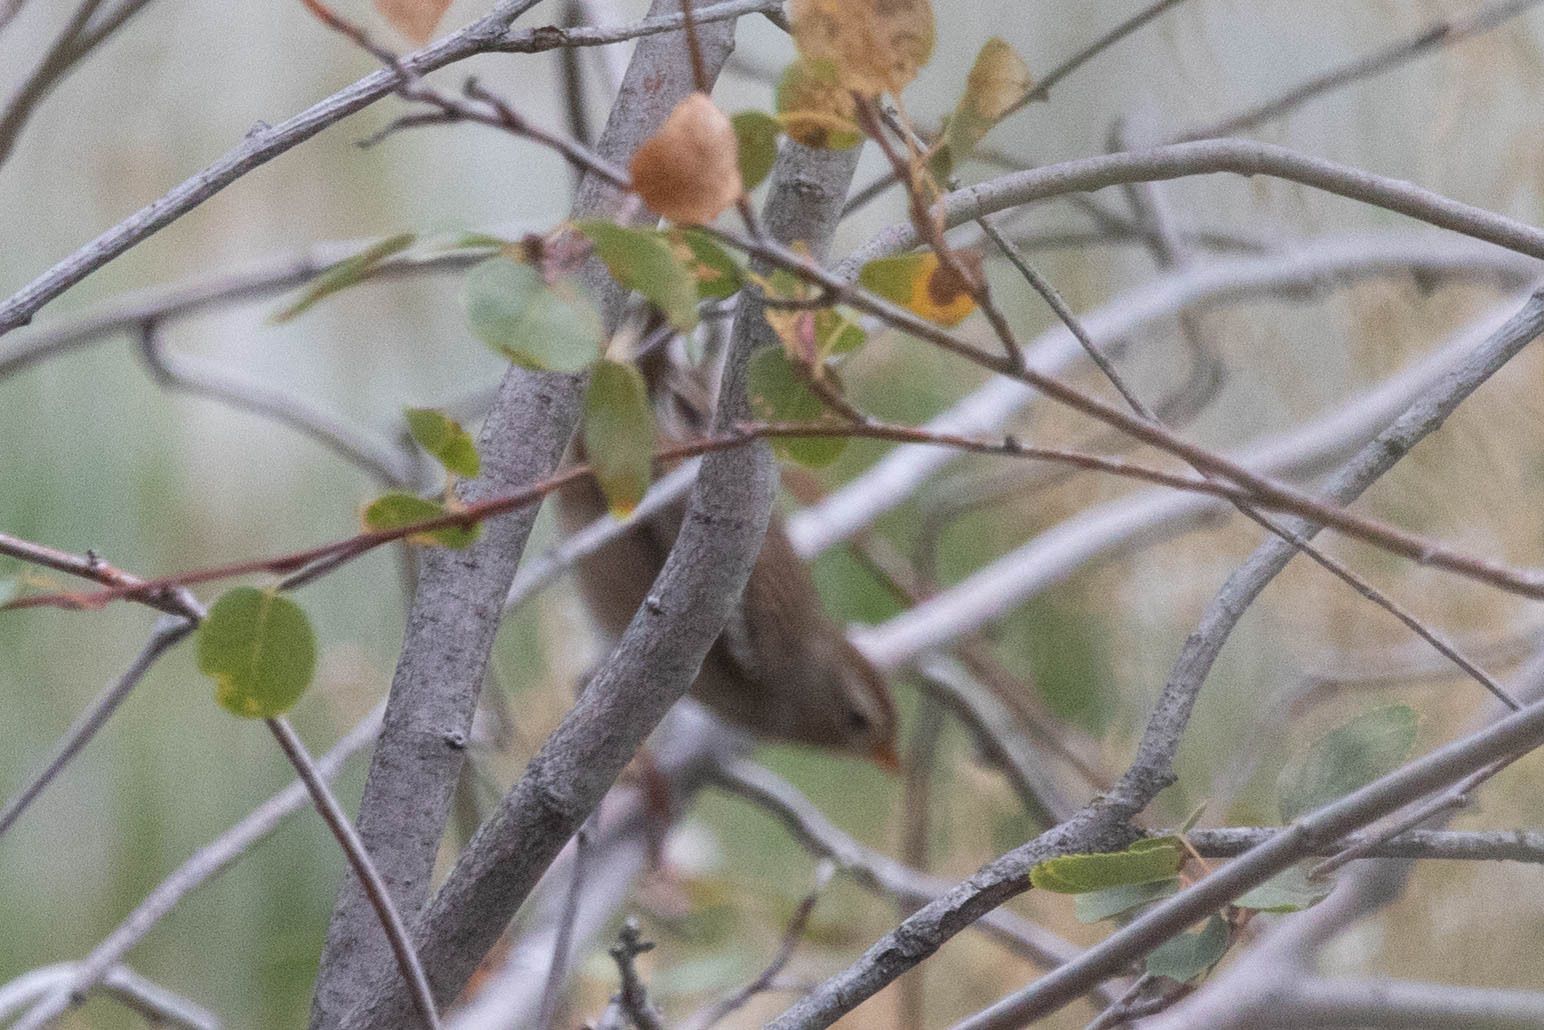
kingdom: Animalia
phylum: Chordata
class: Aves
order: Passeriformes
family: Passerellidae
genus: Zonotrichia
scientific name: Zonotrichia leucophrys
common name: White-crowned sparrow
